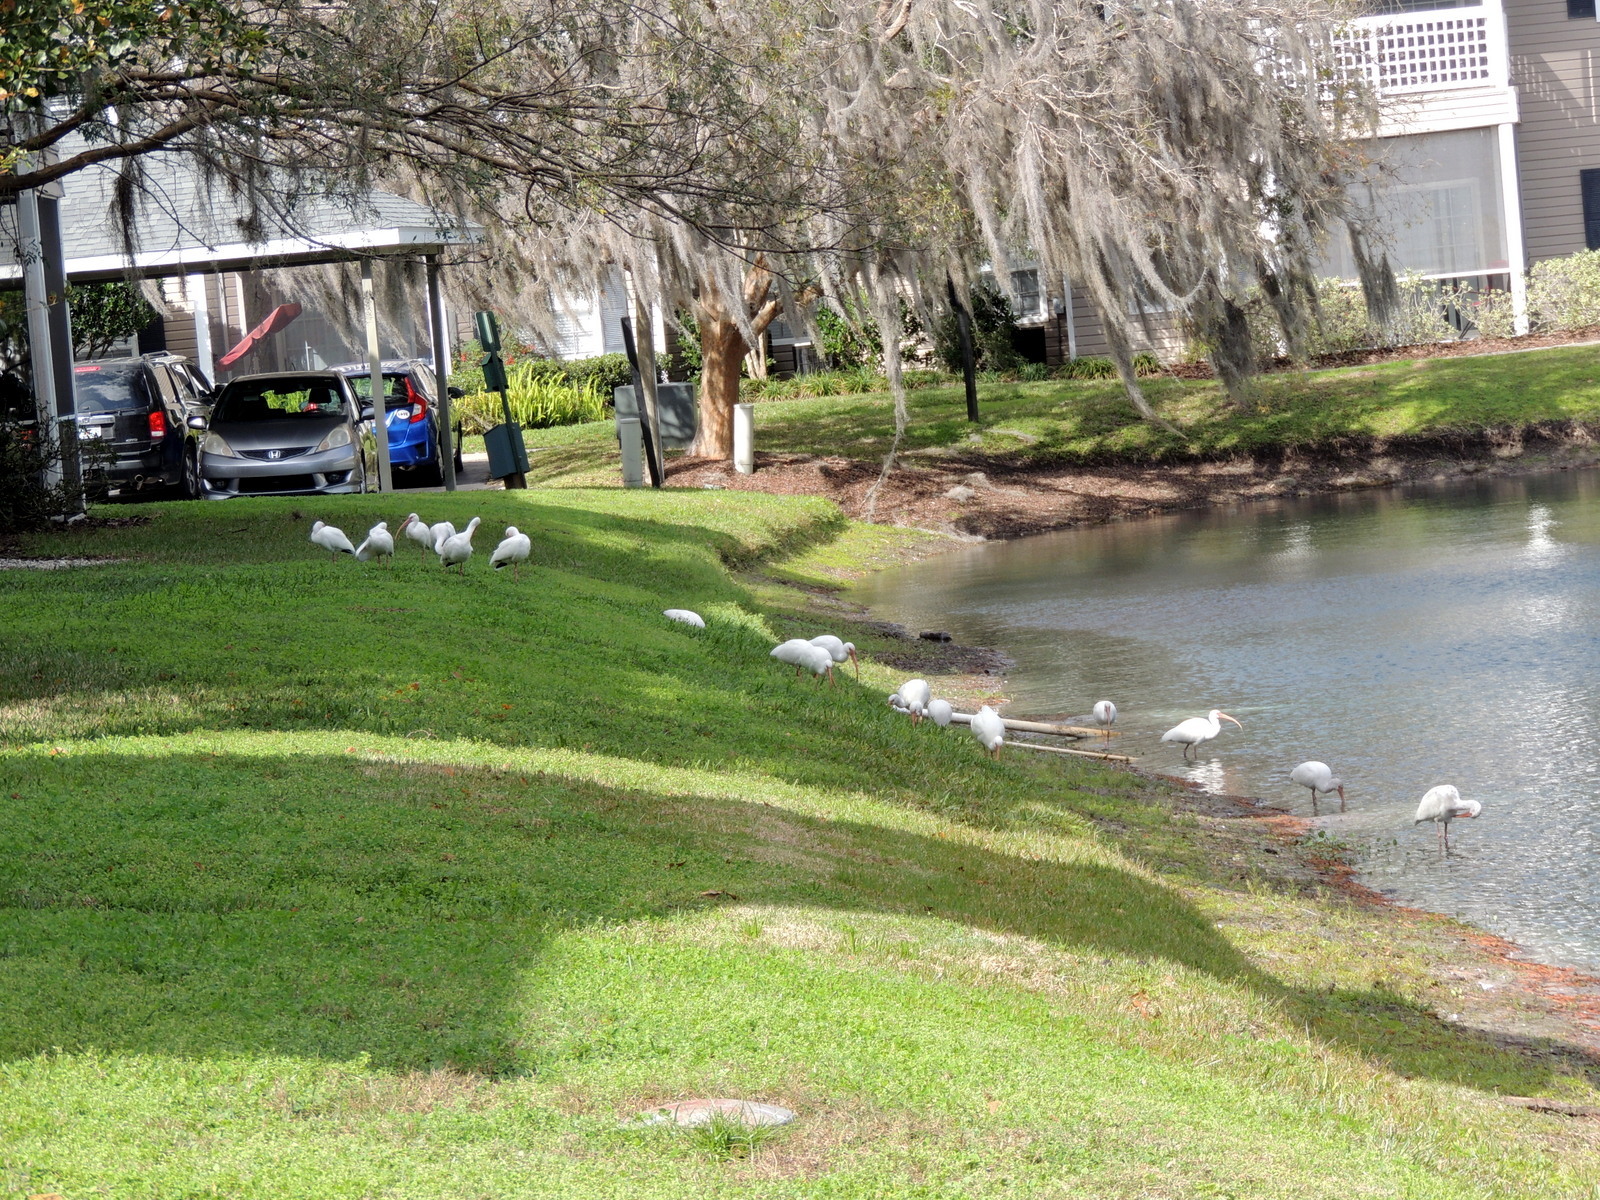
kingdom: Animalia
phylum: Chordata
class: Aves
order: Pelecaniformes
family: Threskiornithidae
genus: Eudocimus
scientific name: Eudocimus albus
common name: White ibis
